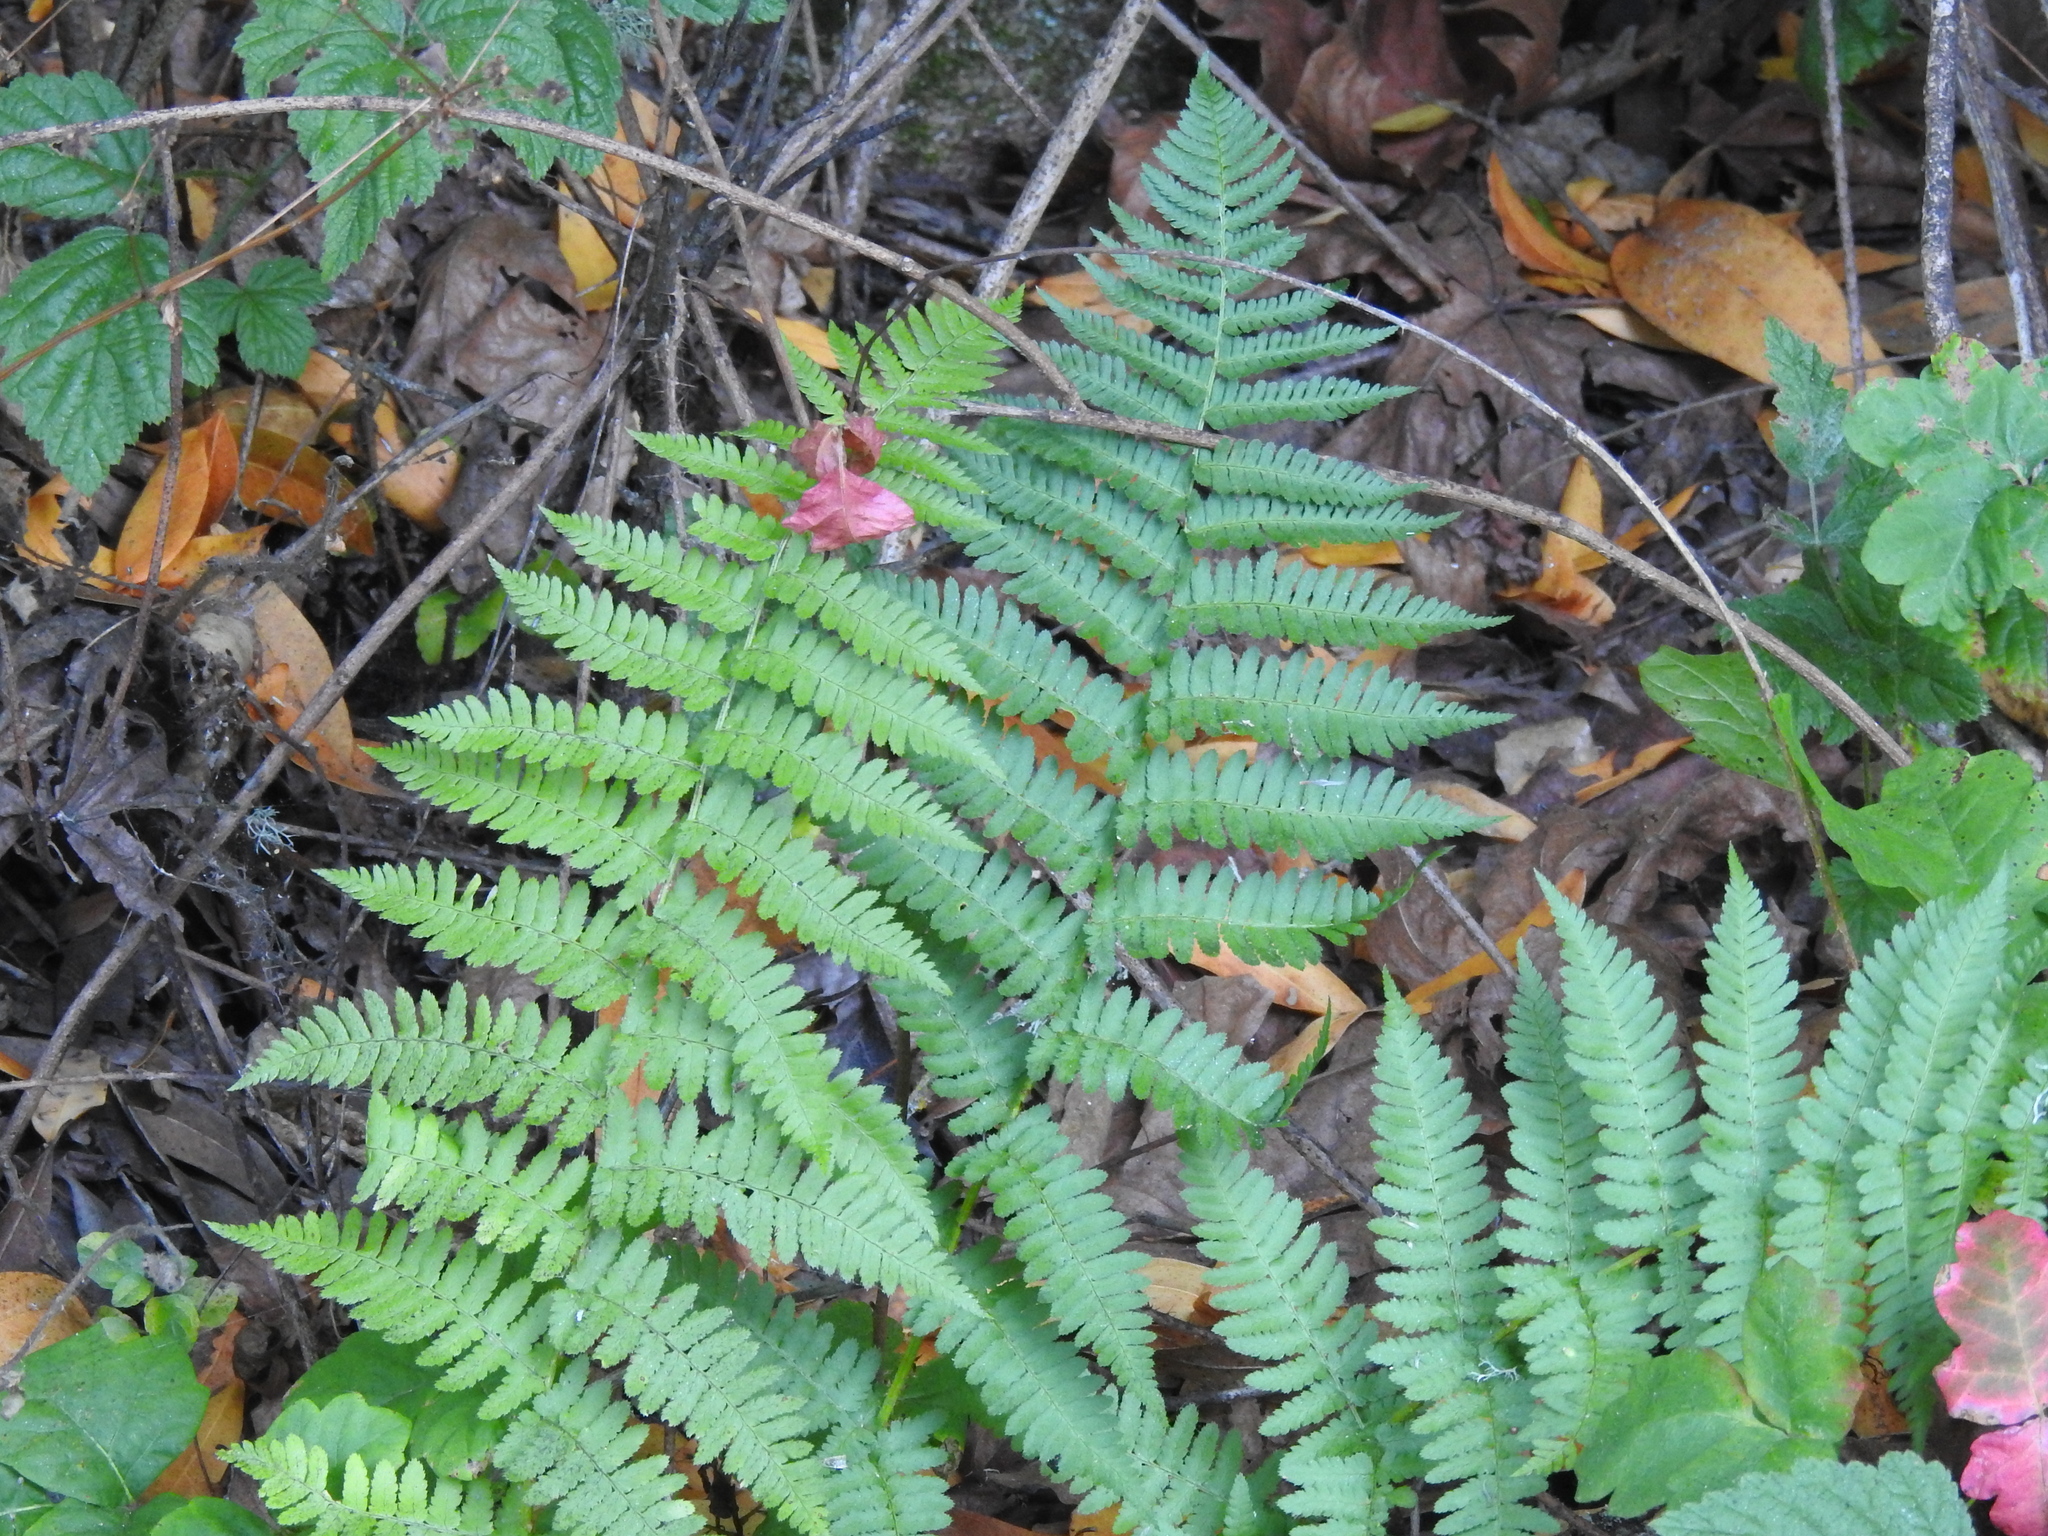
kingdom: Plantae
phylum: Tracheophyta
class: Polypodiopsida
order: Polypodiales
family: Dryopteridaceae
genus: Dryopteris
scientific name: Dryopteris arguta
